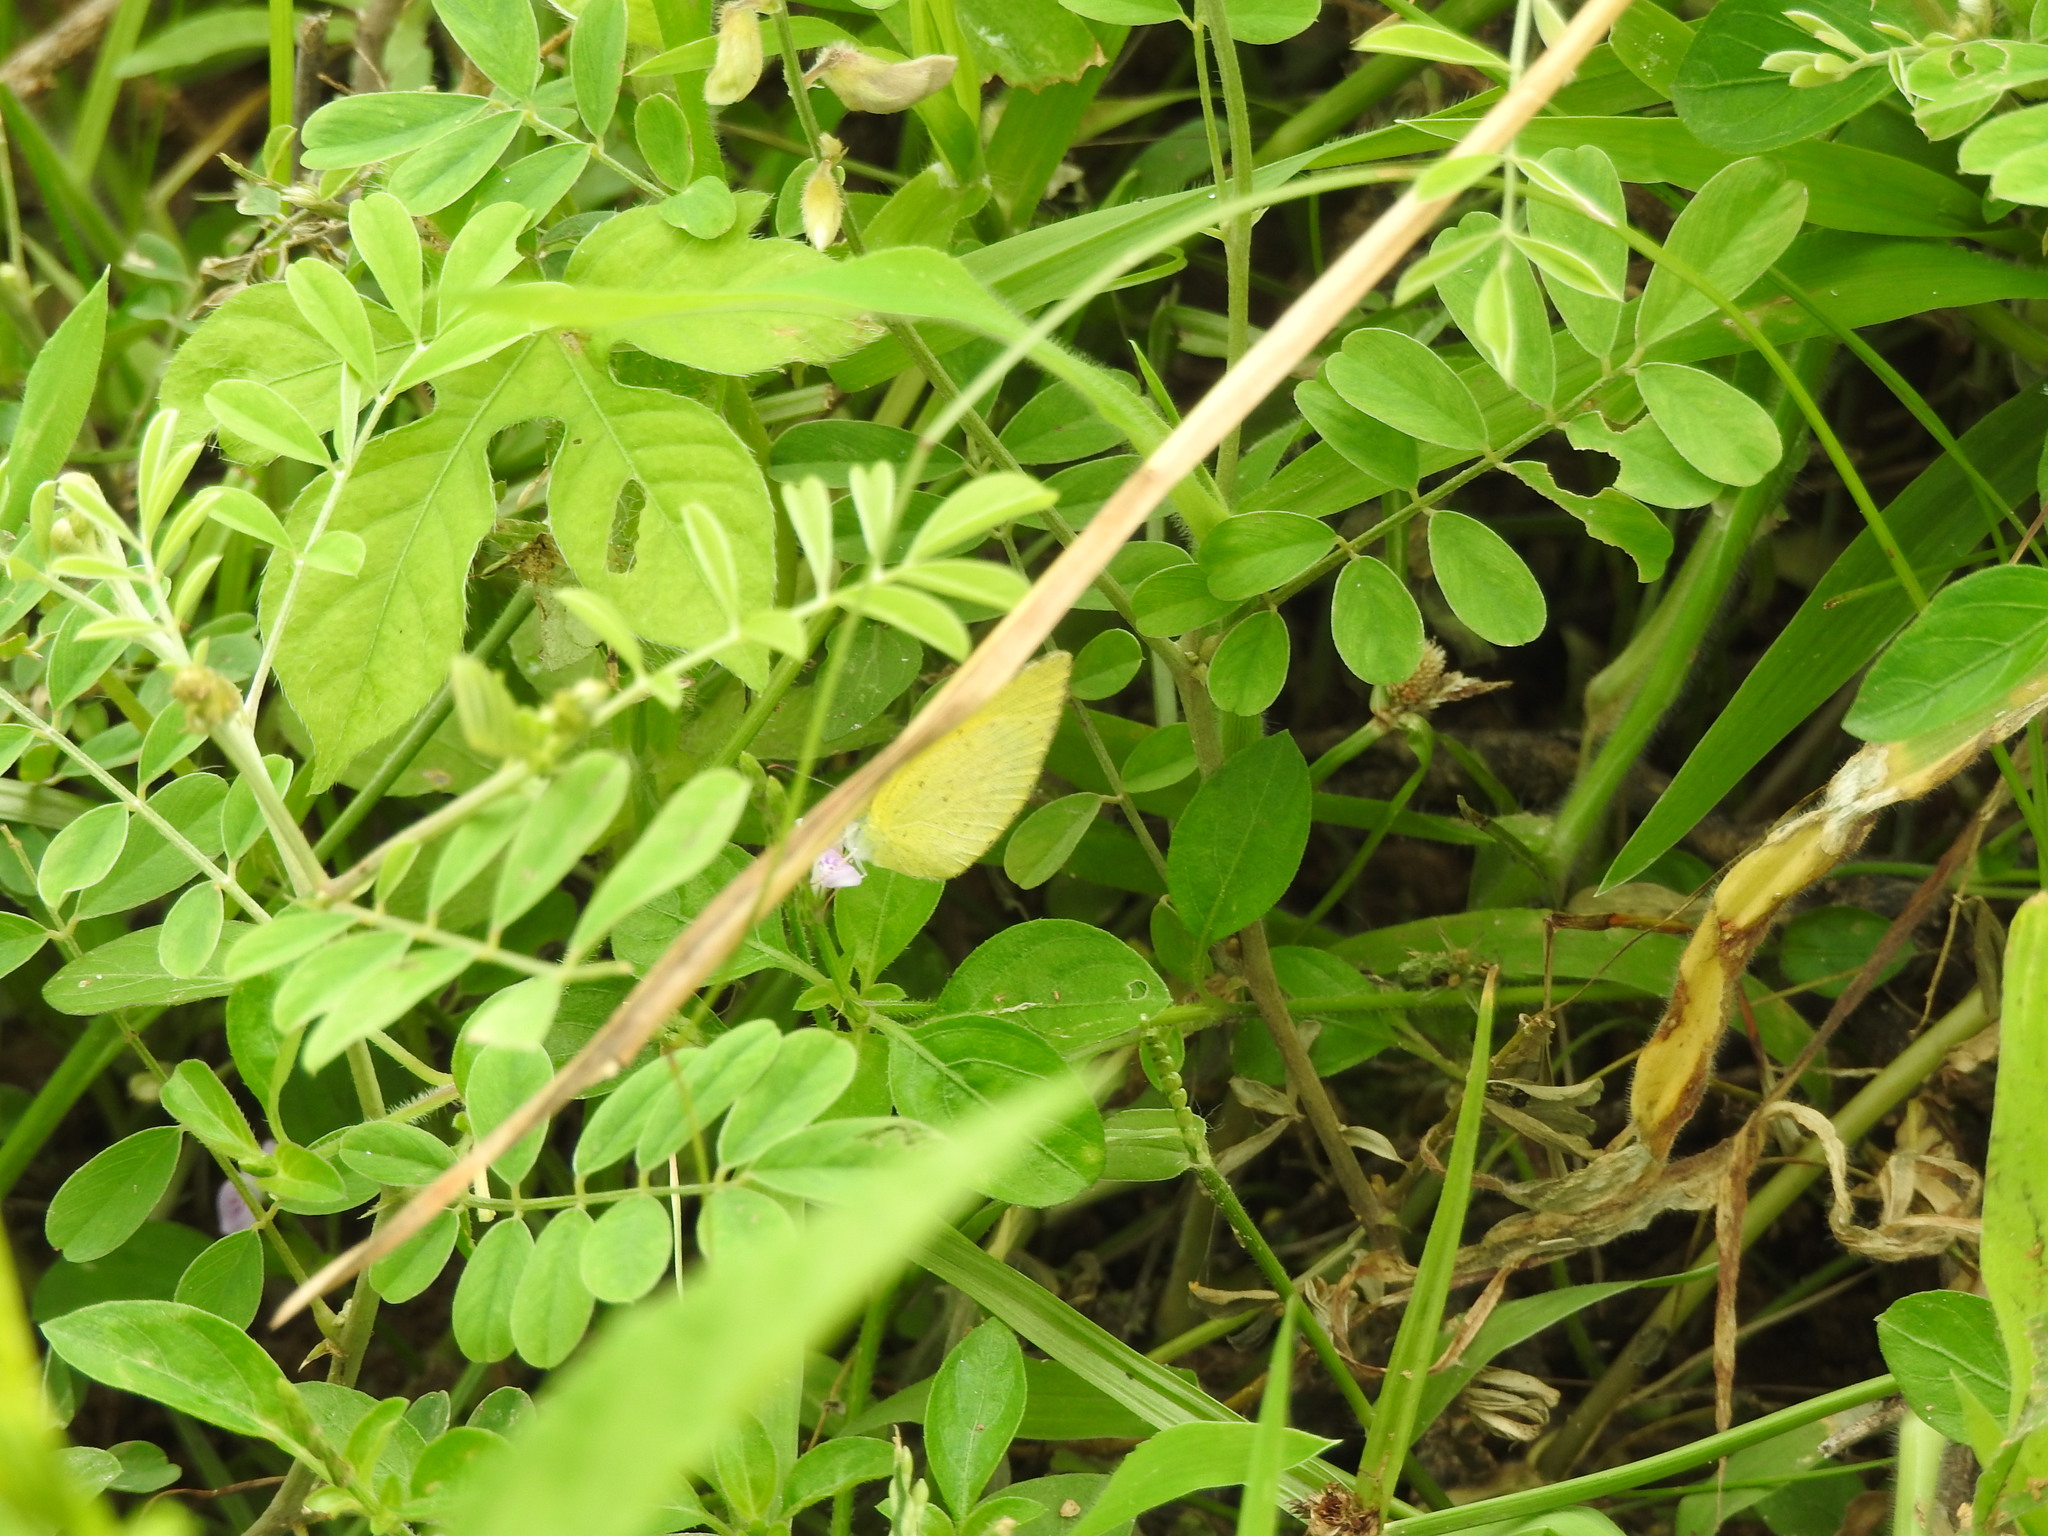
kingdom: Animalia
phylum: Arthropoda
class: Insecta
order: Lepidoptera
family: Pieridae
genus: Eurema
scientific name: Eurema brigitta
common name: Small grass yellow
